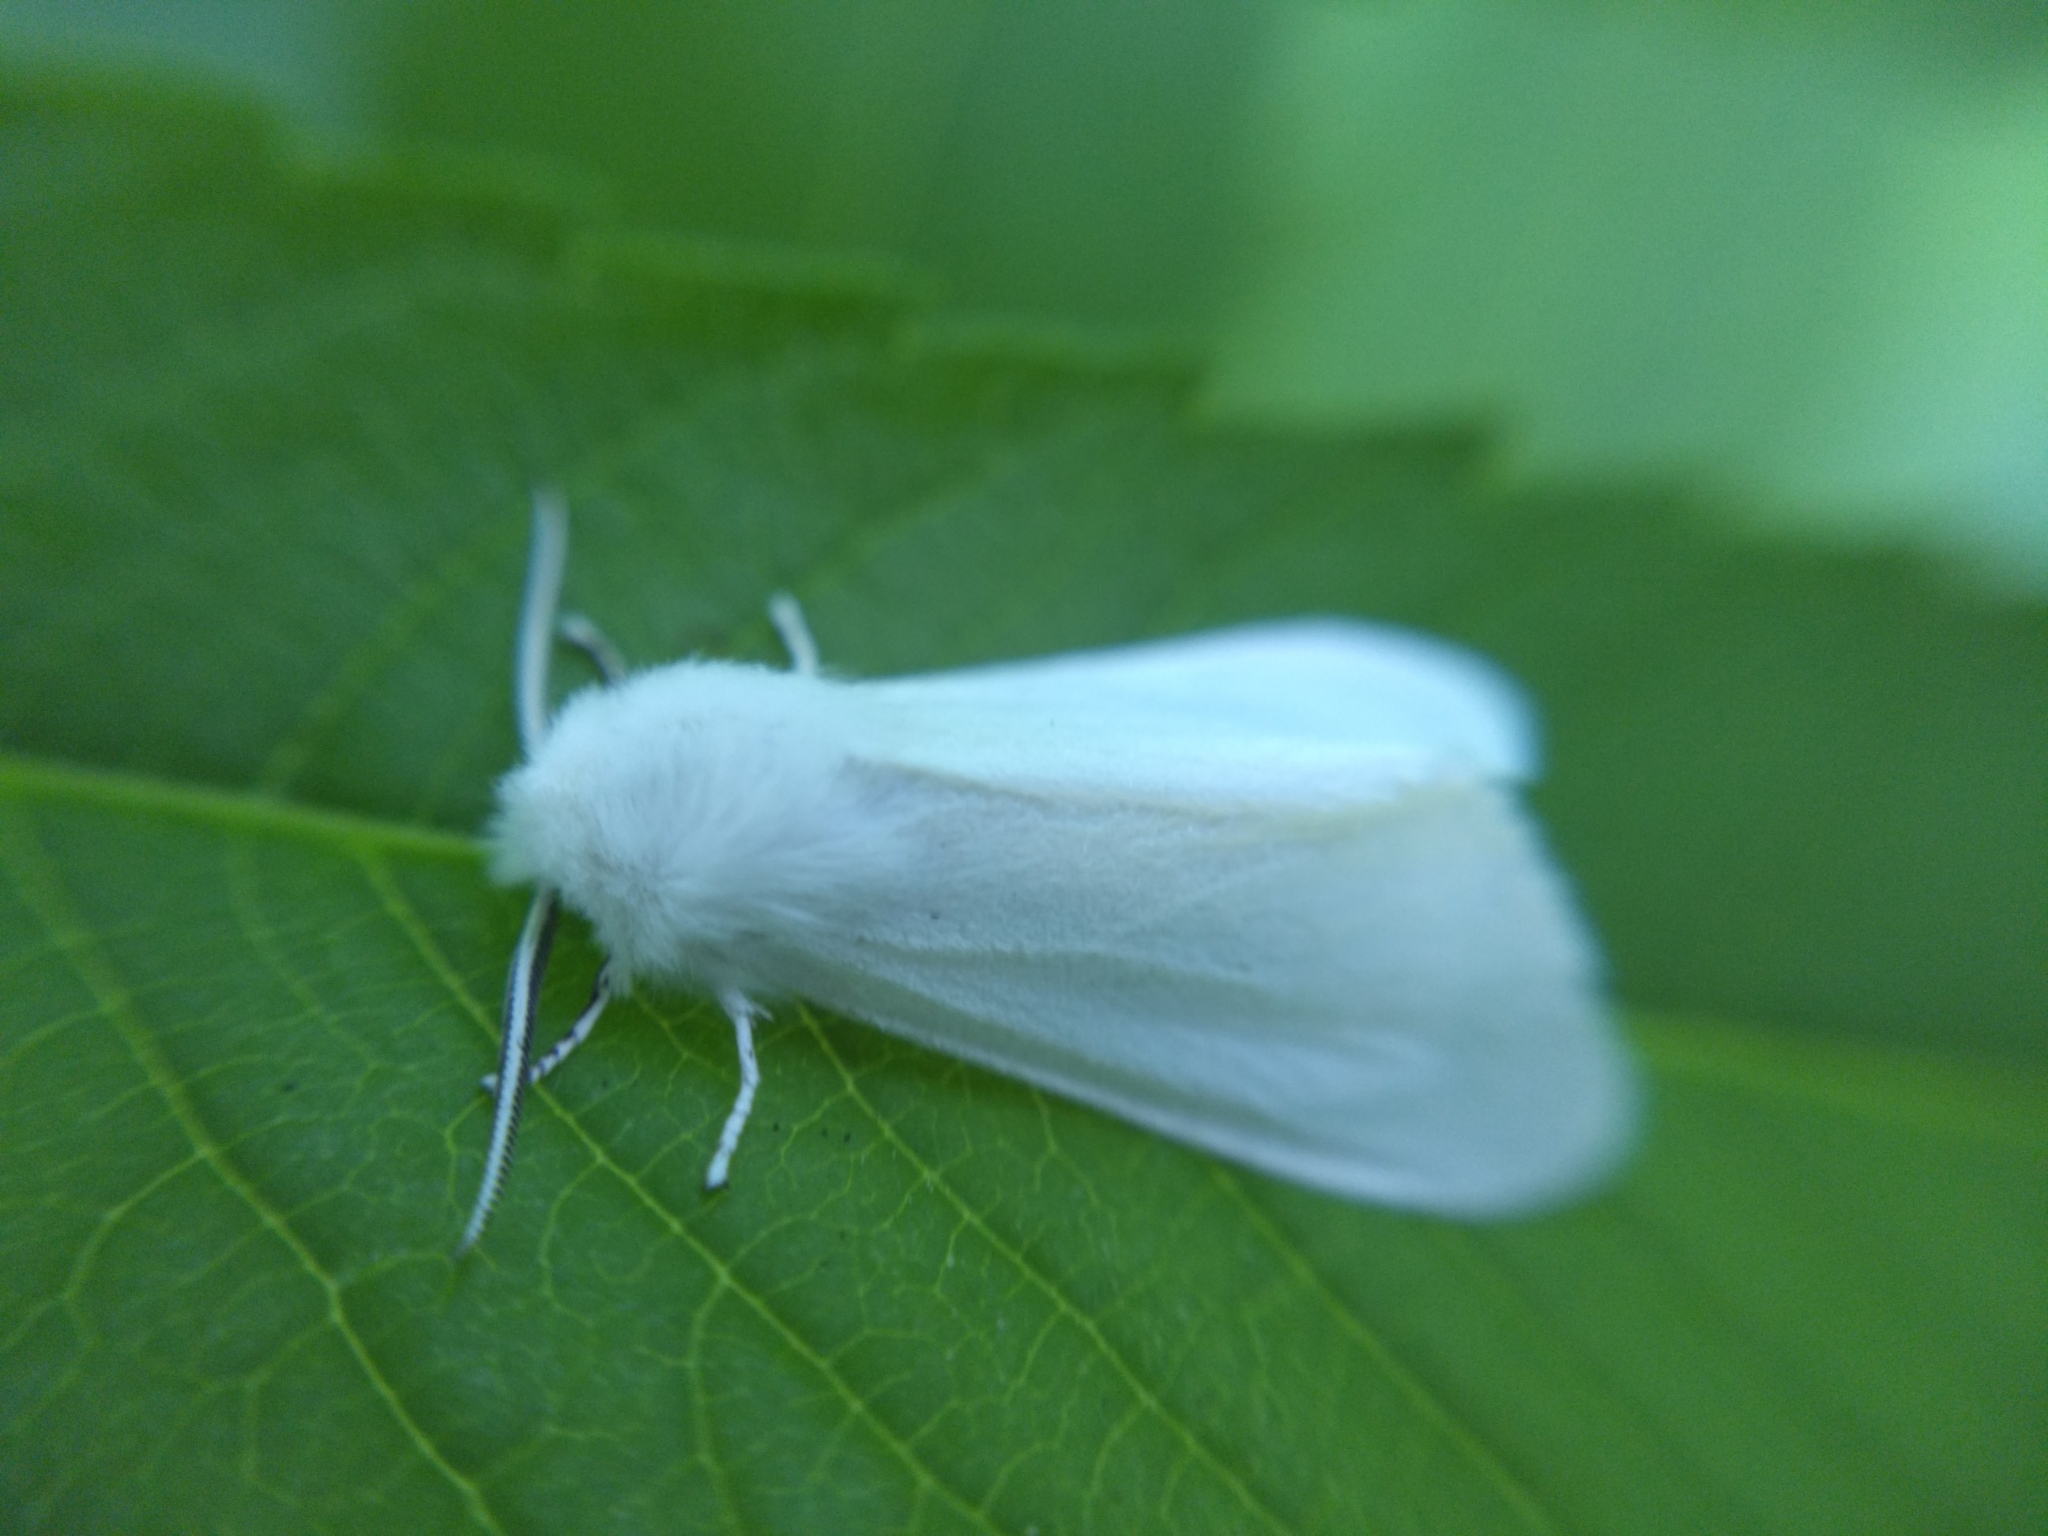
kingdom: Animalia
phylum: Arthropoda
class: Insecta
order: Lepidoptera
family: Erebidae
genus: Hyphantria
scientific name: Hyphantria cunea
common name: American white moth
